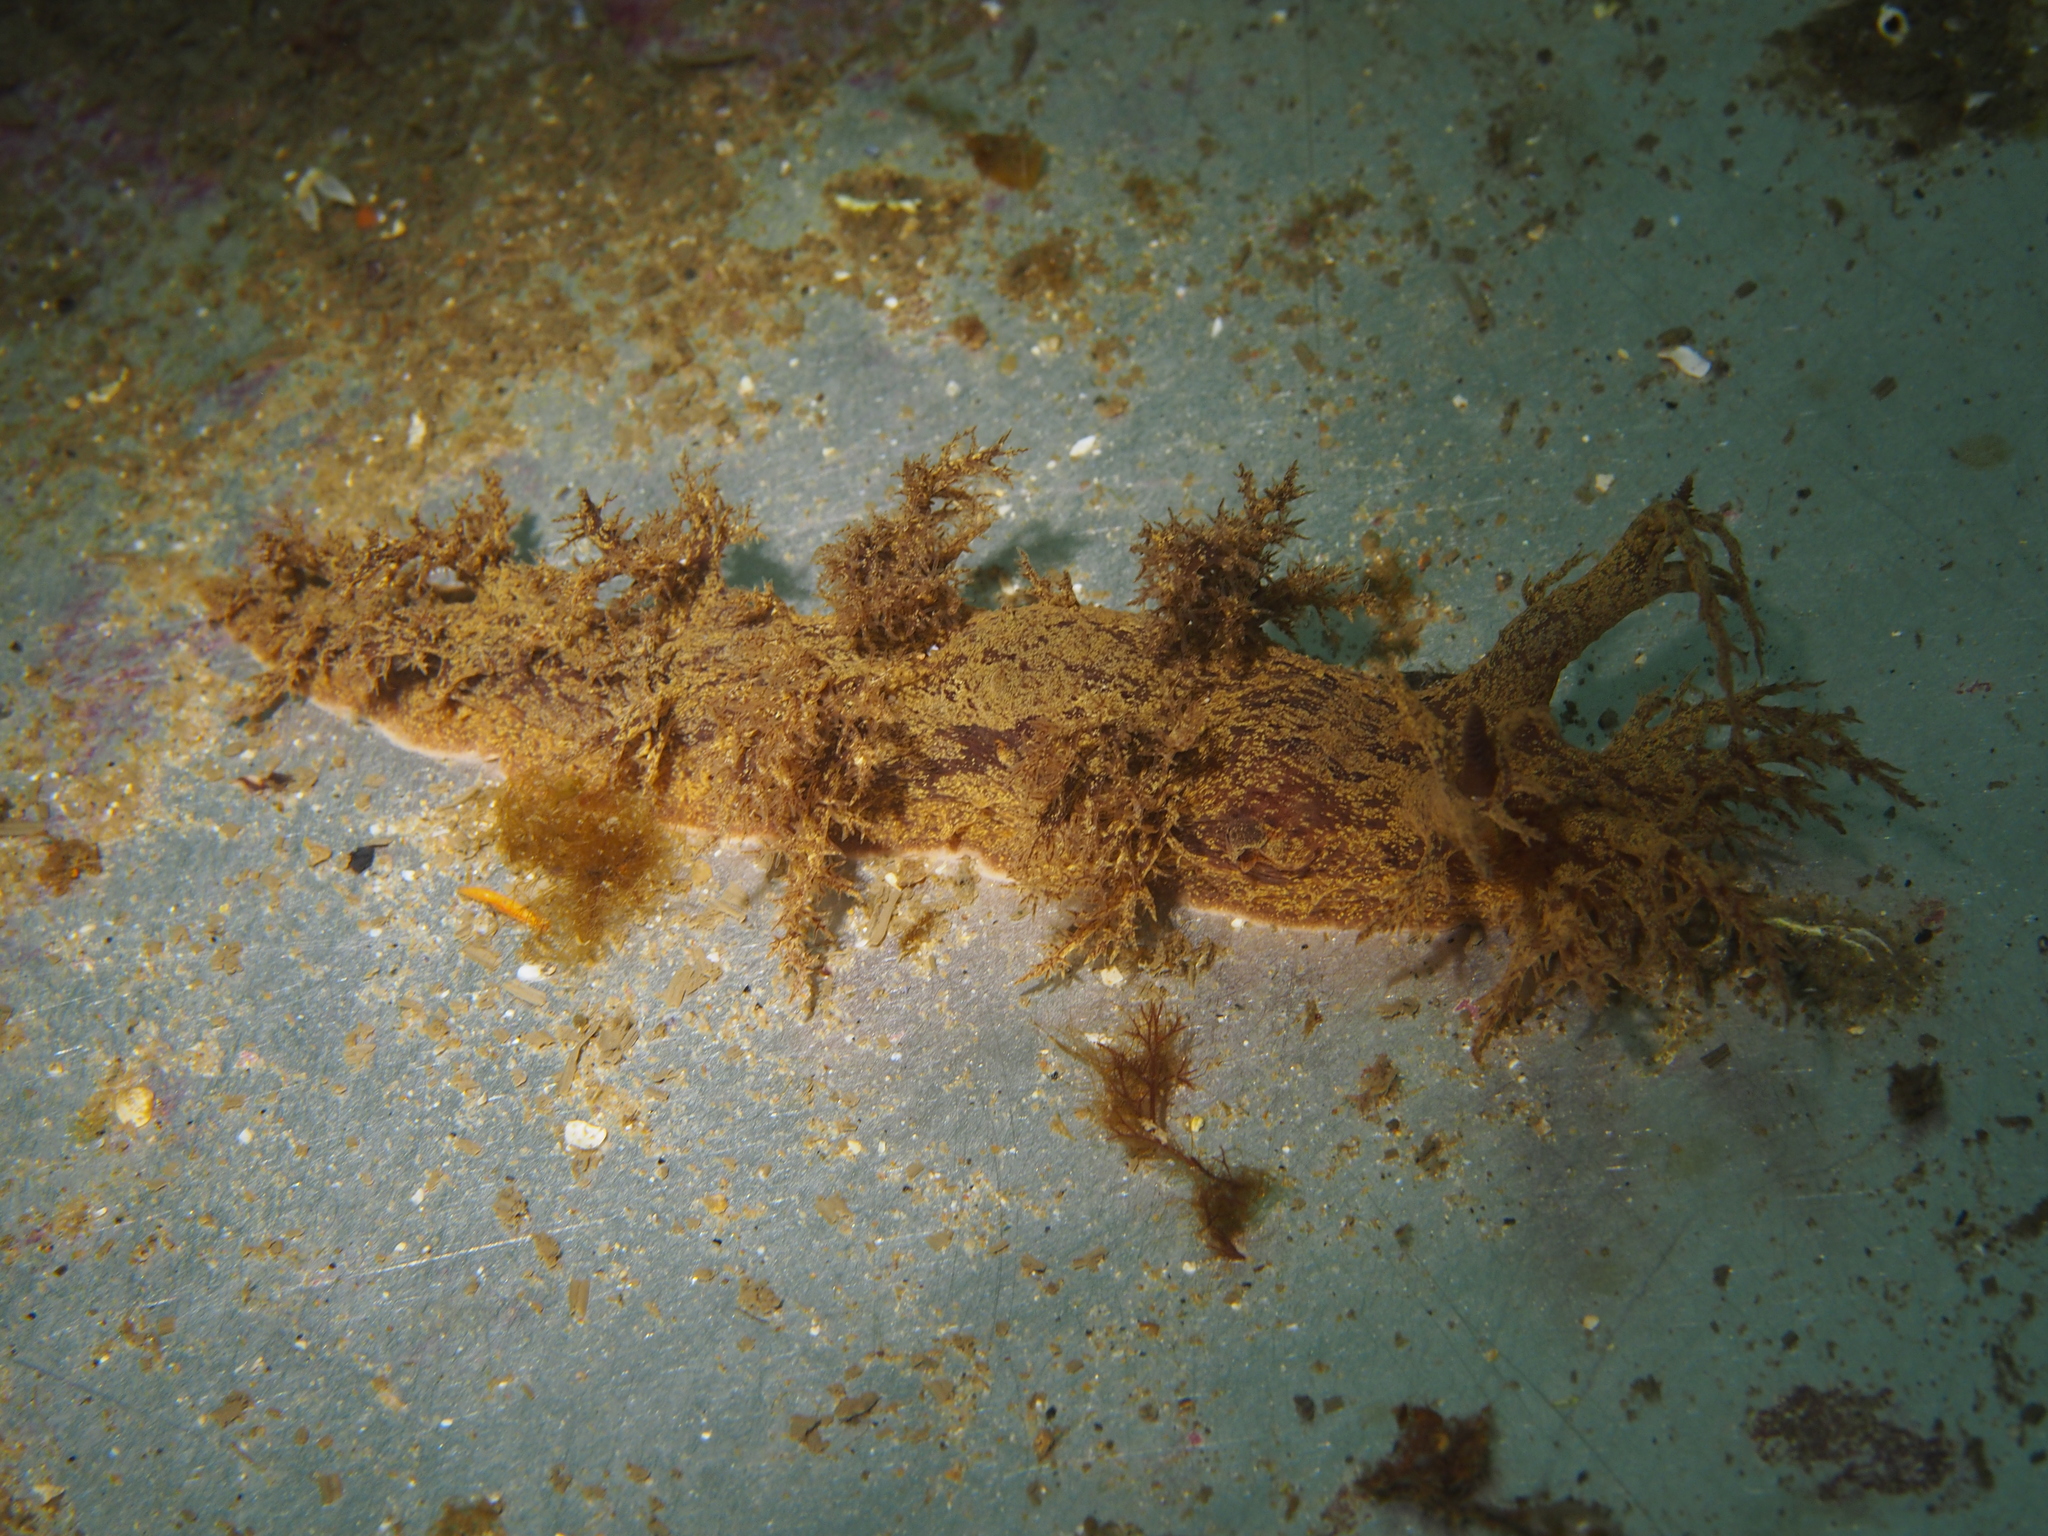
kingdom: Animalia
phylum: Mollusca
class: Gastropoda
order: Nudibranchia
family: Dendronotidae
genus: Dendronotus
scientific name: Dendronotus europaeus
